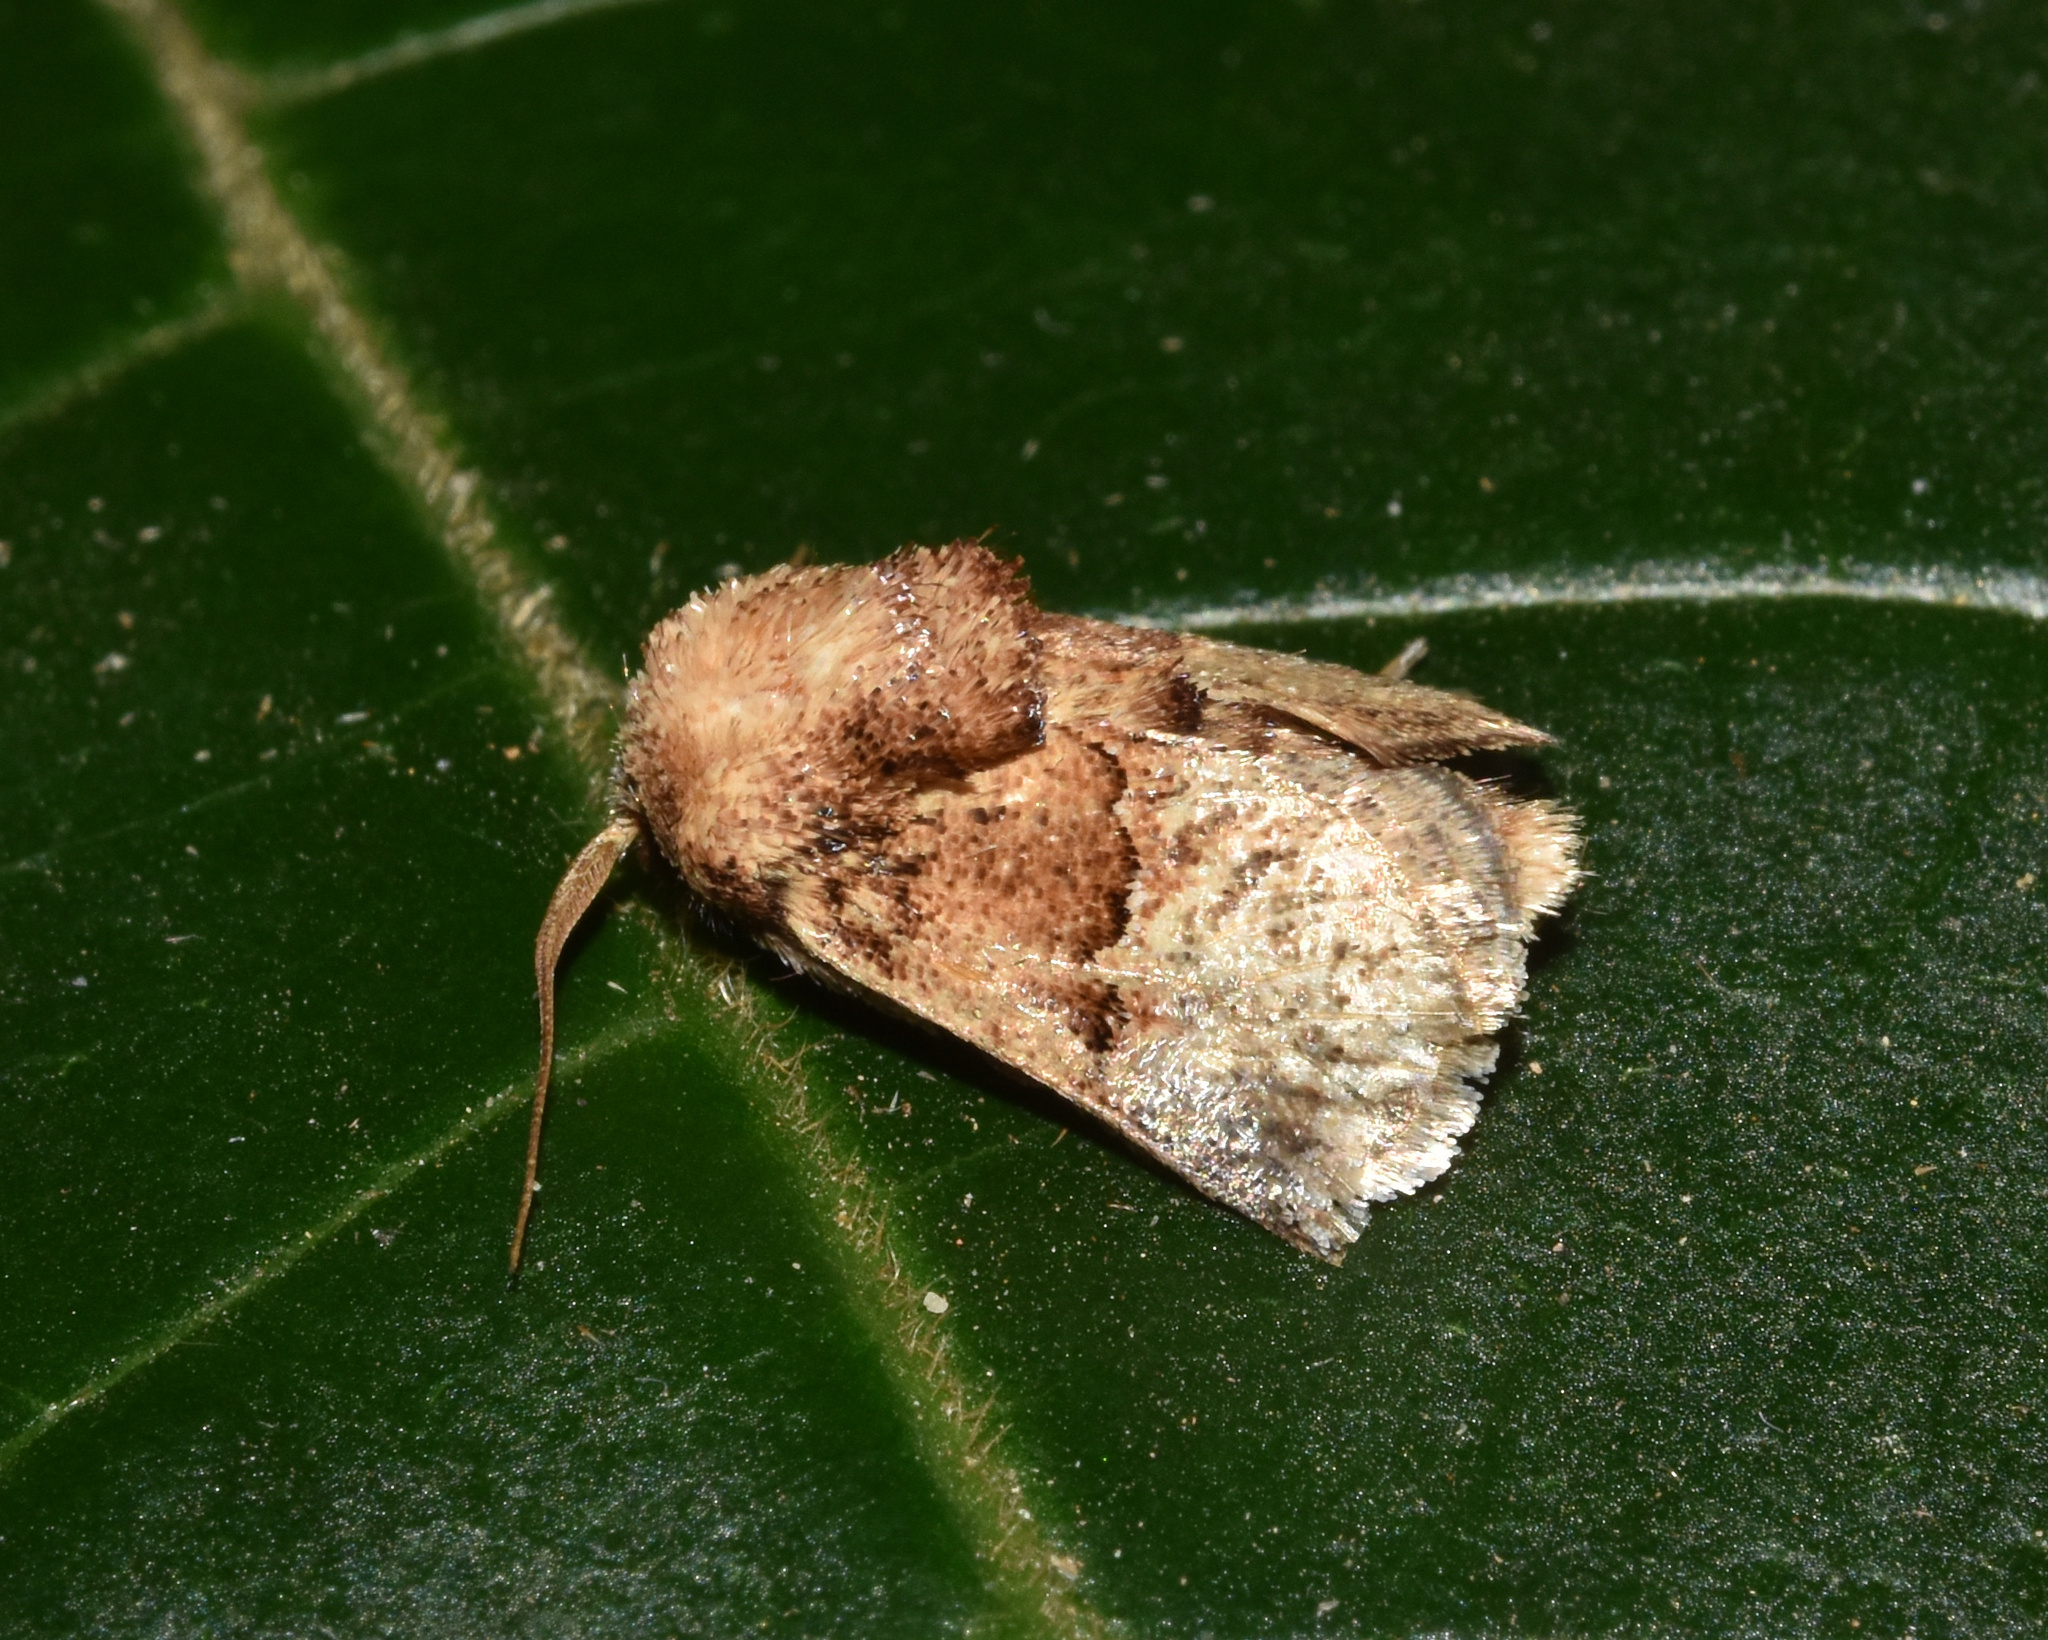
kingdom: Animalia
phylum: Arthropoda
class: Insecta
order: Lepidoptera
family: Limacodidae
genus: Afrobirthama
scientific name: Afrobirthama flaccidia
